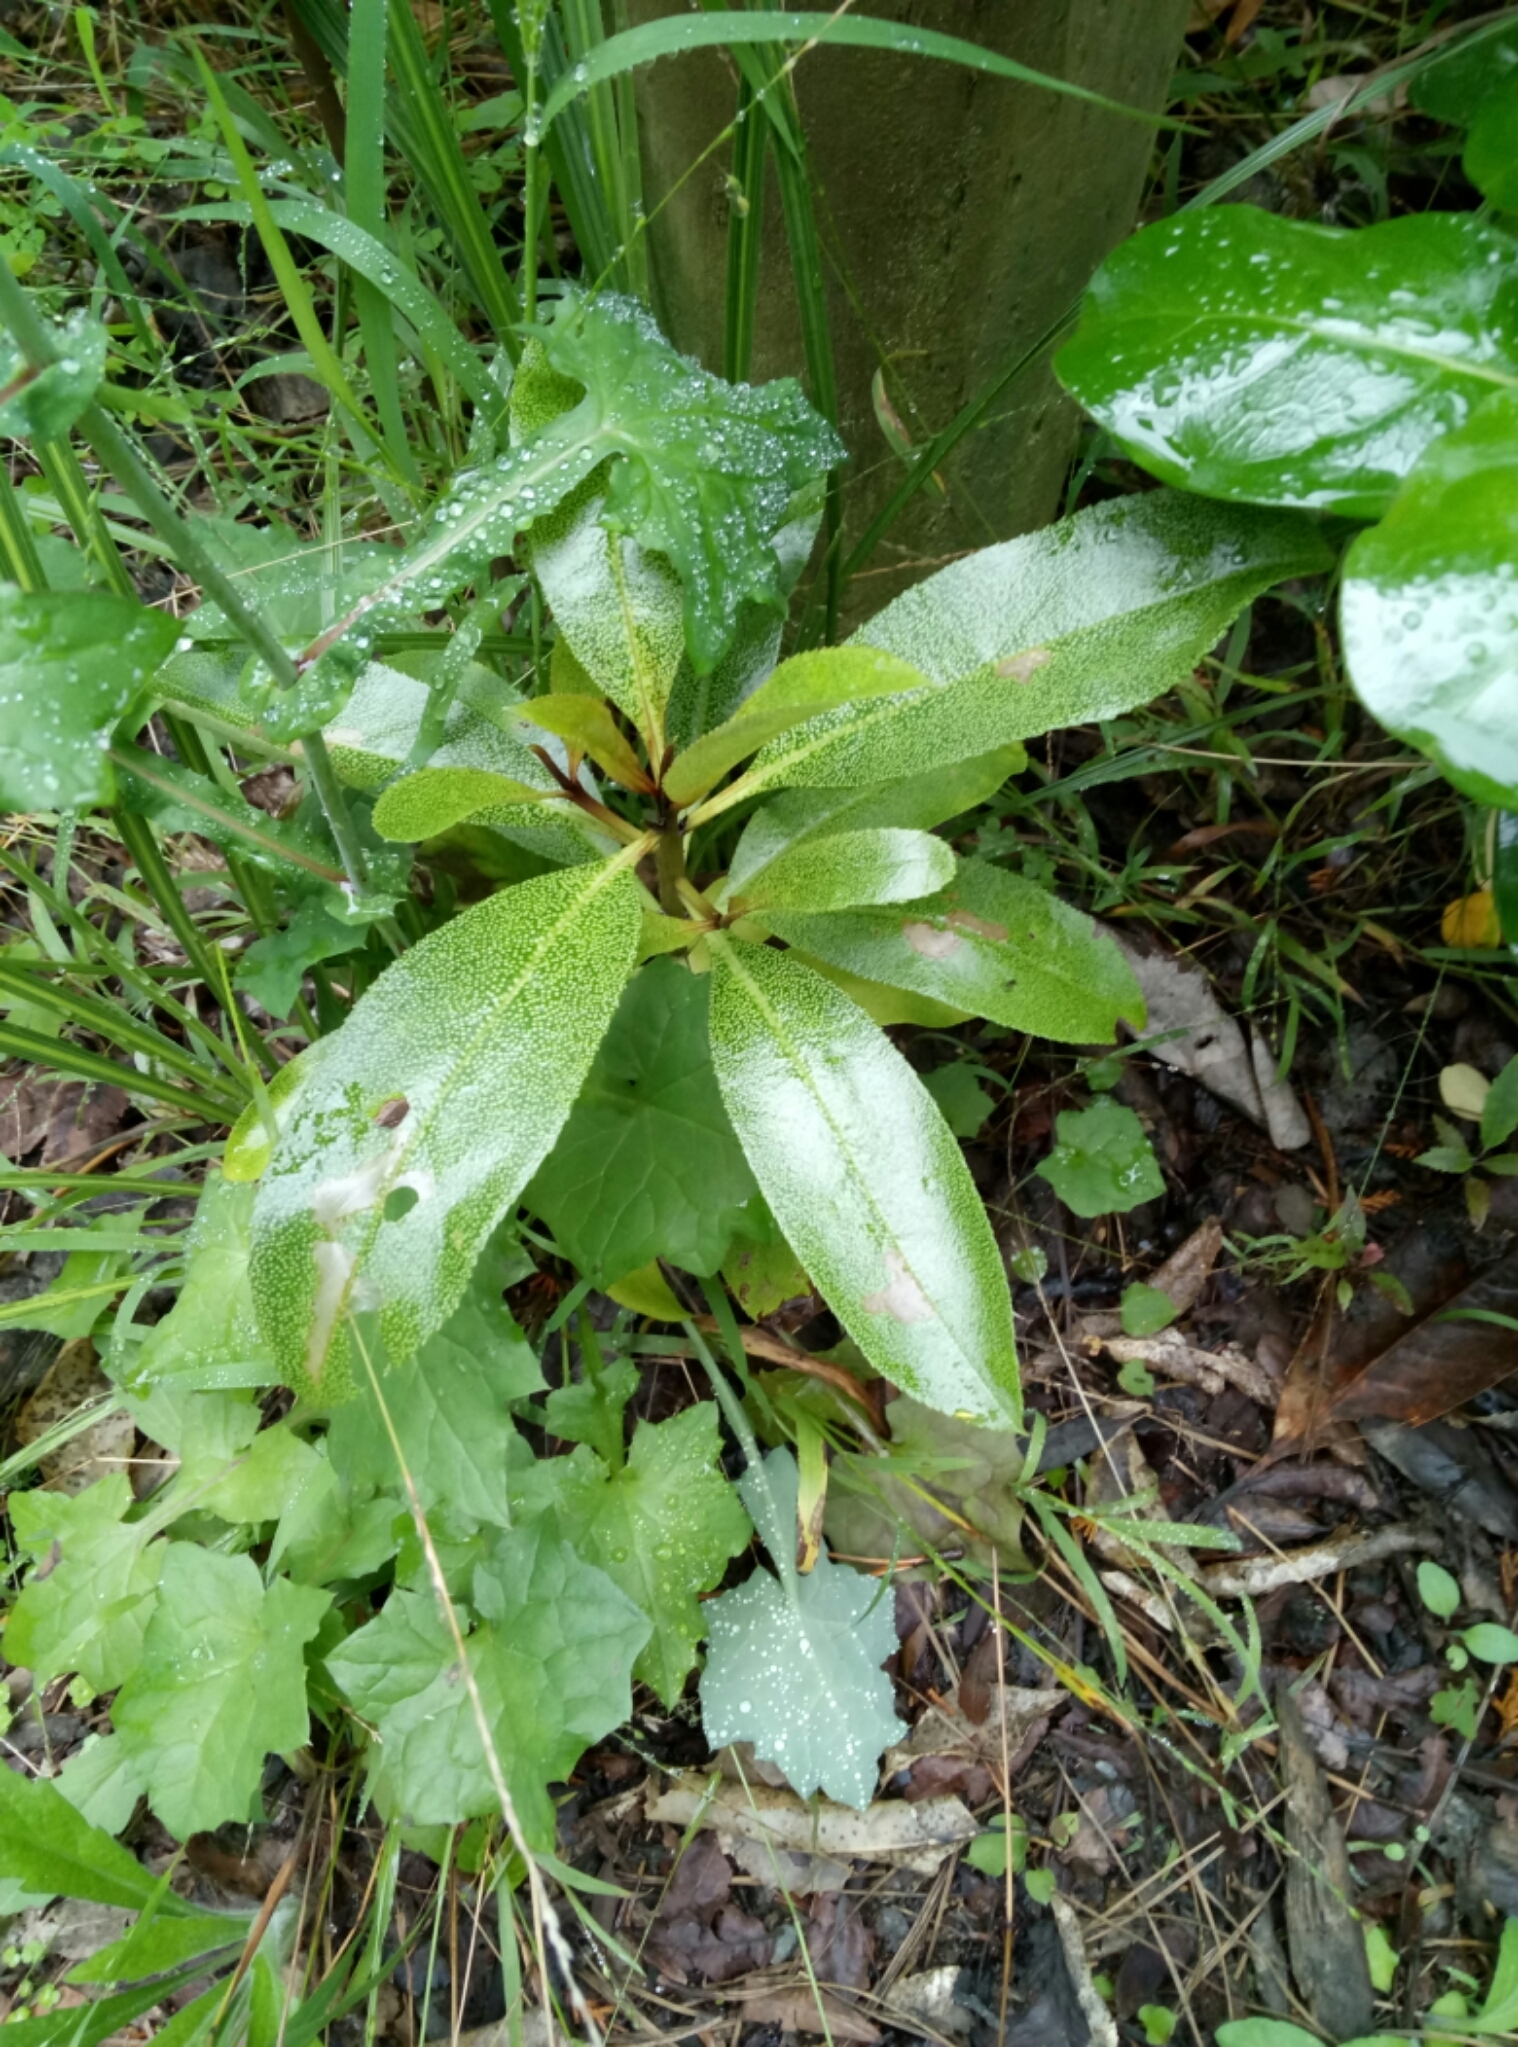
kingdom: Plantae
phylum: Tracheophyta
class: Magnoliopsida
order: Lamiales
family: Scrophulariaceae
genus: Myoporum
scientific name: Myoporum laetum
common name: Ngaio tree
